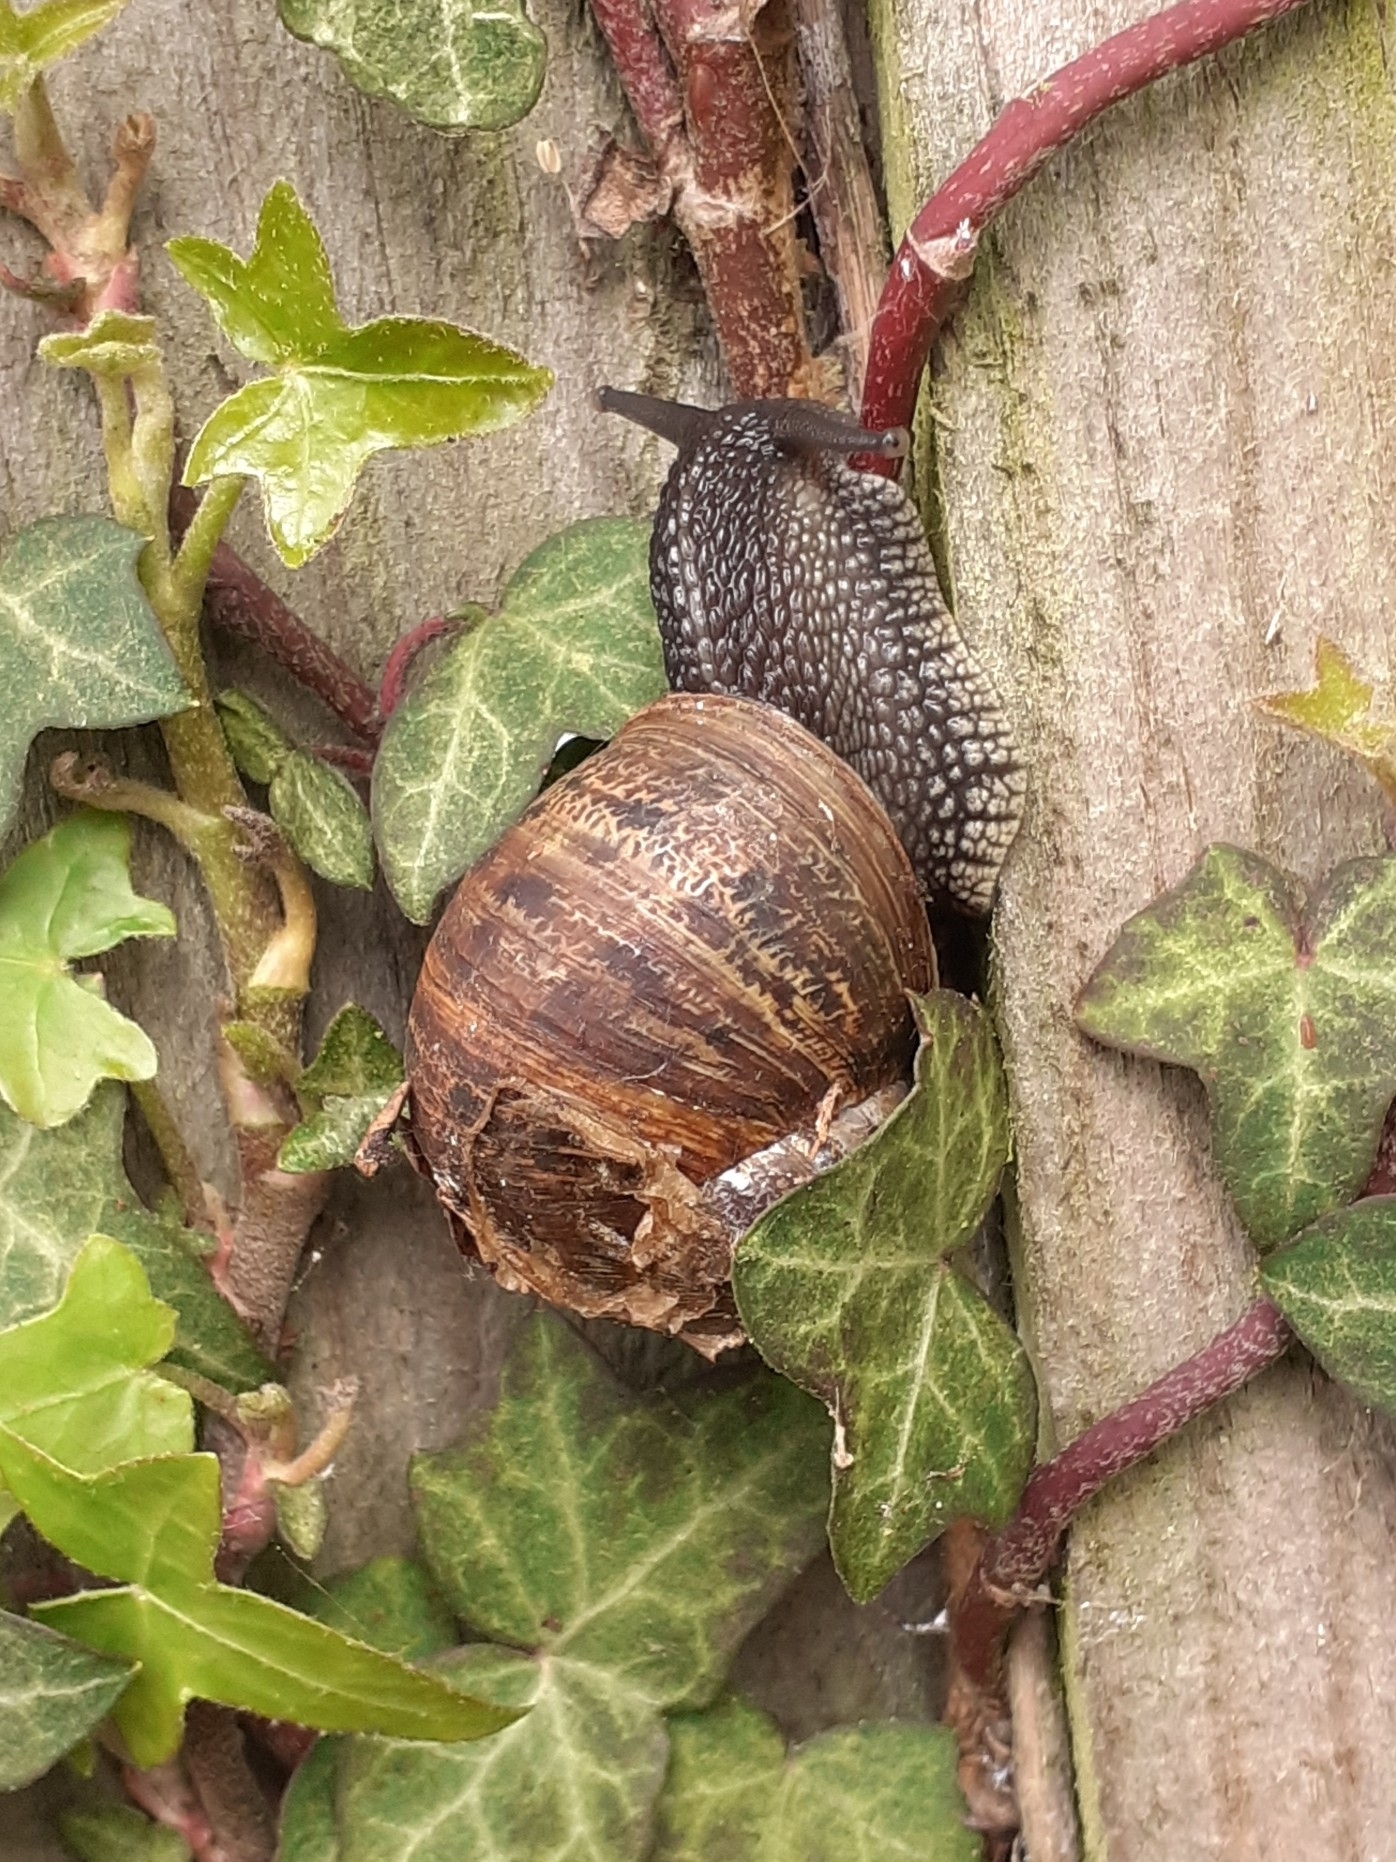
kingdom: Animalia
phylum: Mollusca
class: Gastropoda
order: Stylommatophora
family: Helicidae
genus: Cornu
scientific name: Cornu aspersum
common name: Brown garden snail
